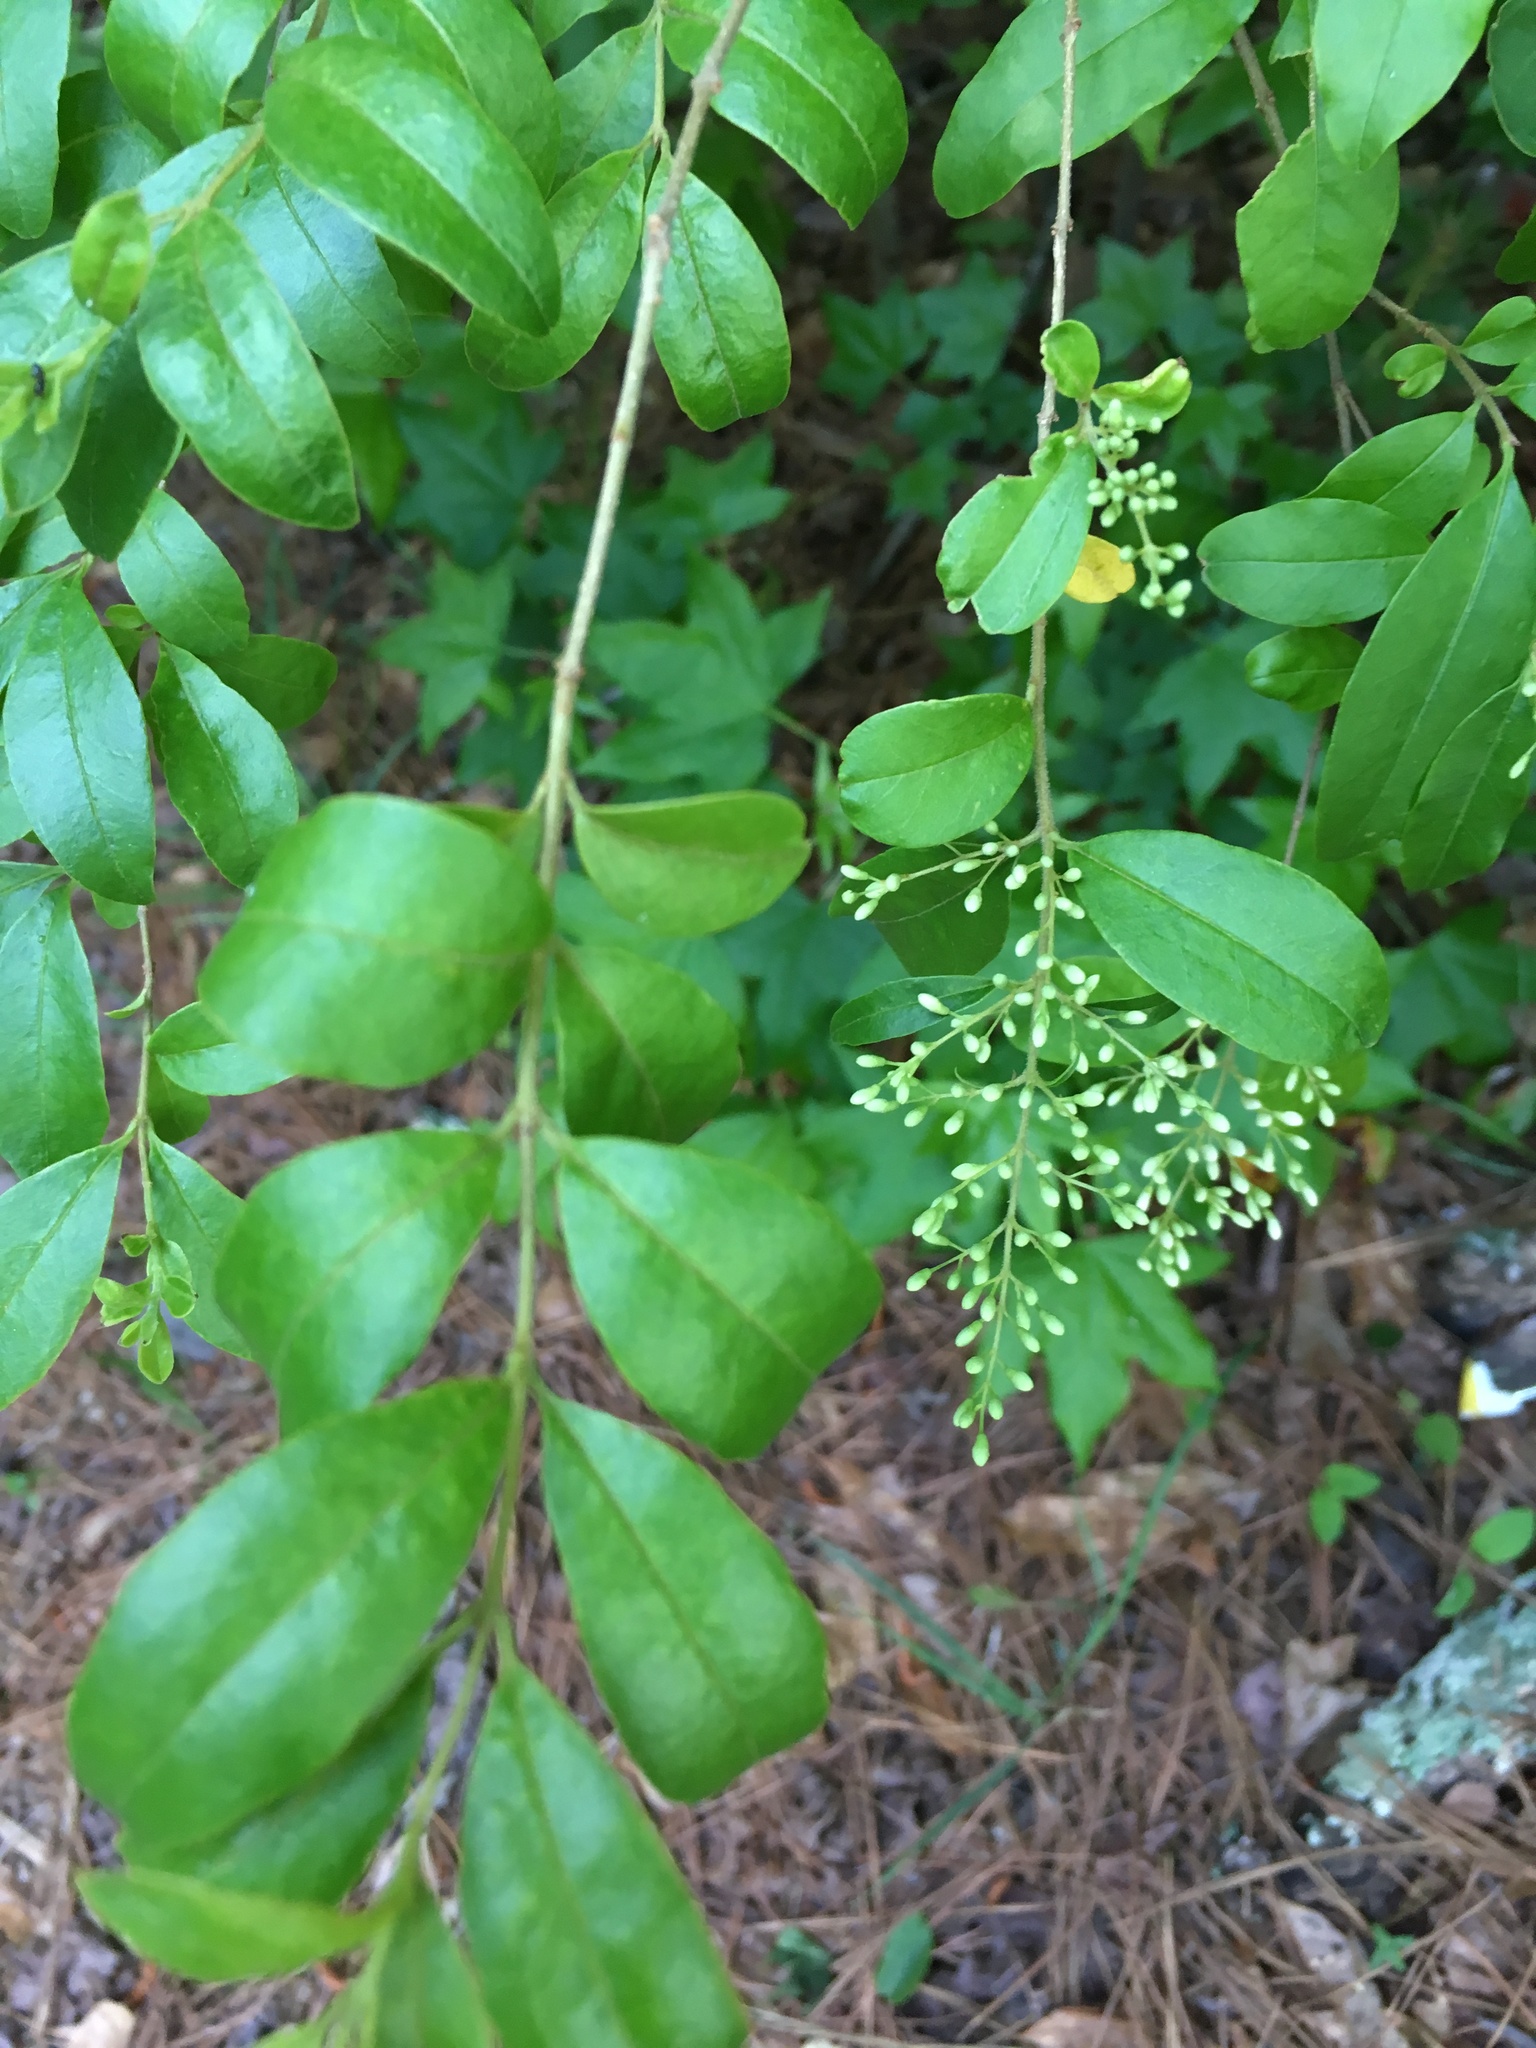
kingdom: Plantae
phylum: Tracheophyta
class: Magnoliopsida
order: Lamiales
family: Oleaceae
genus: Ligustrum
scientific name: Ligustrum sinense
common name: Chinese privet
